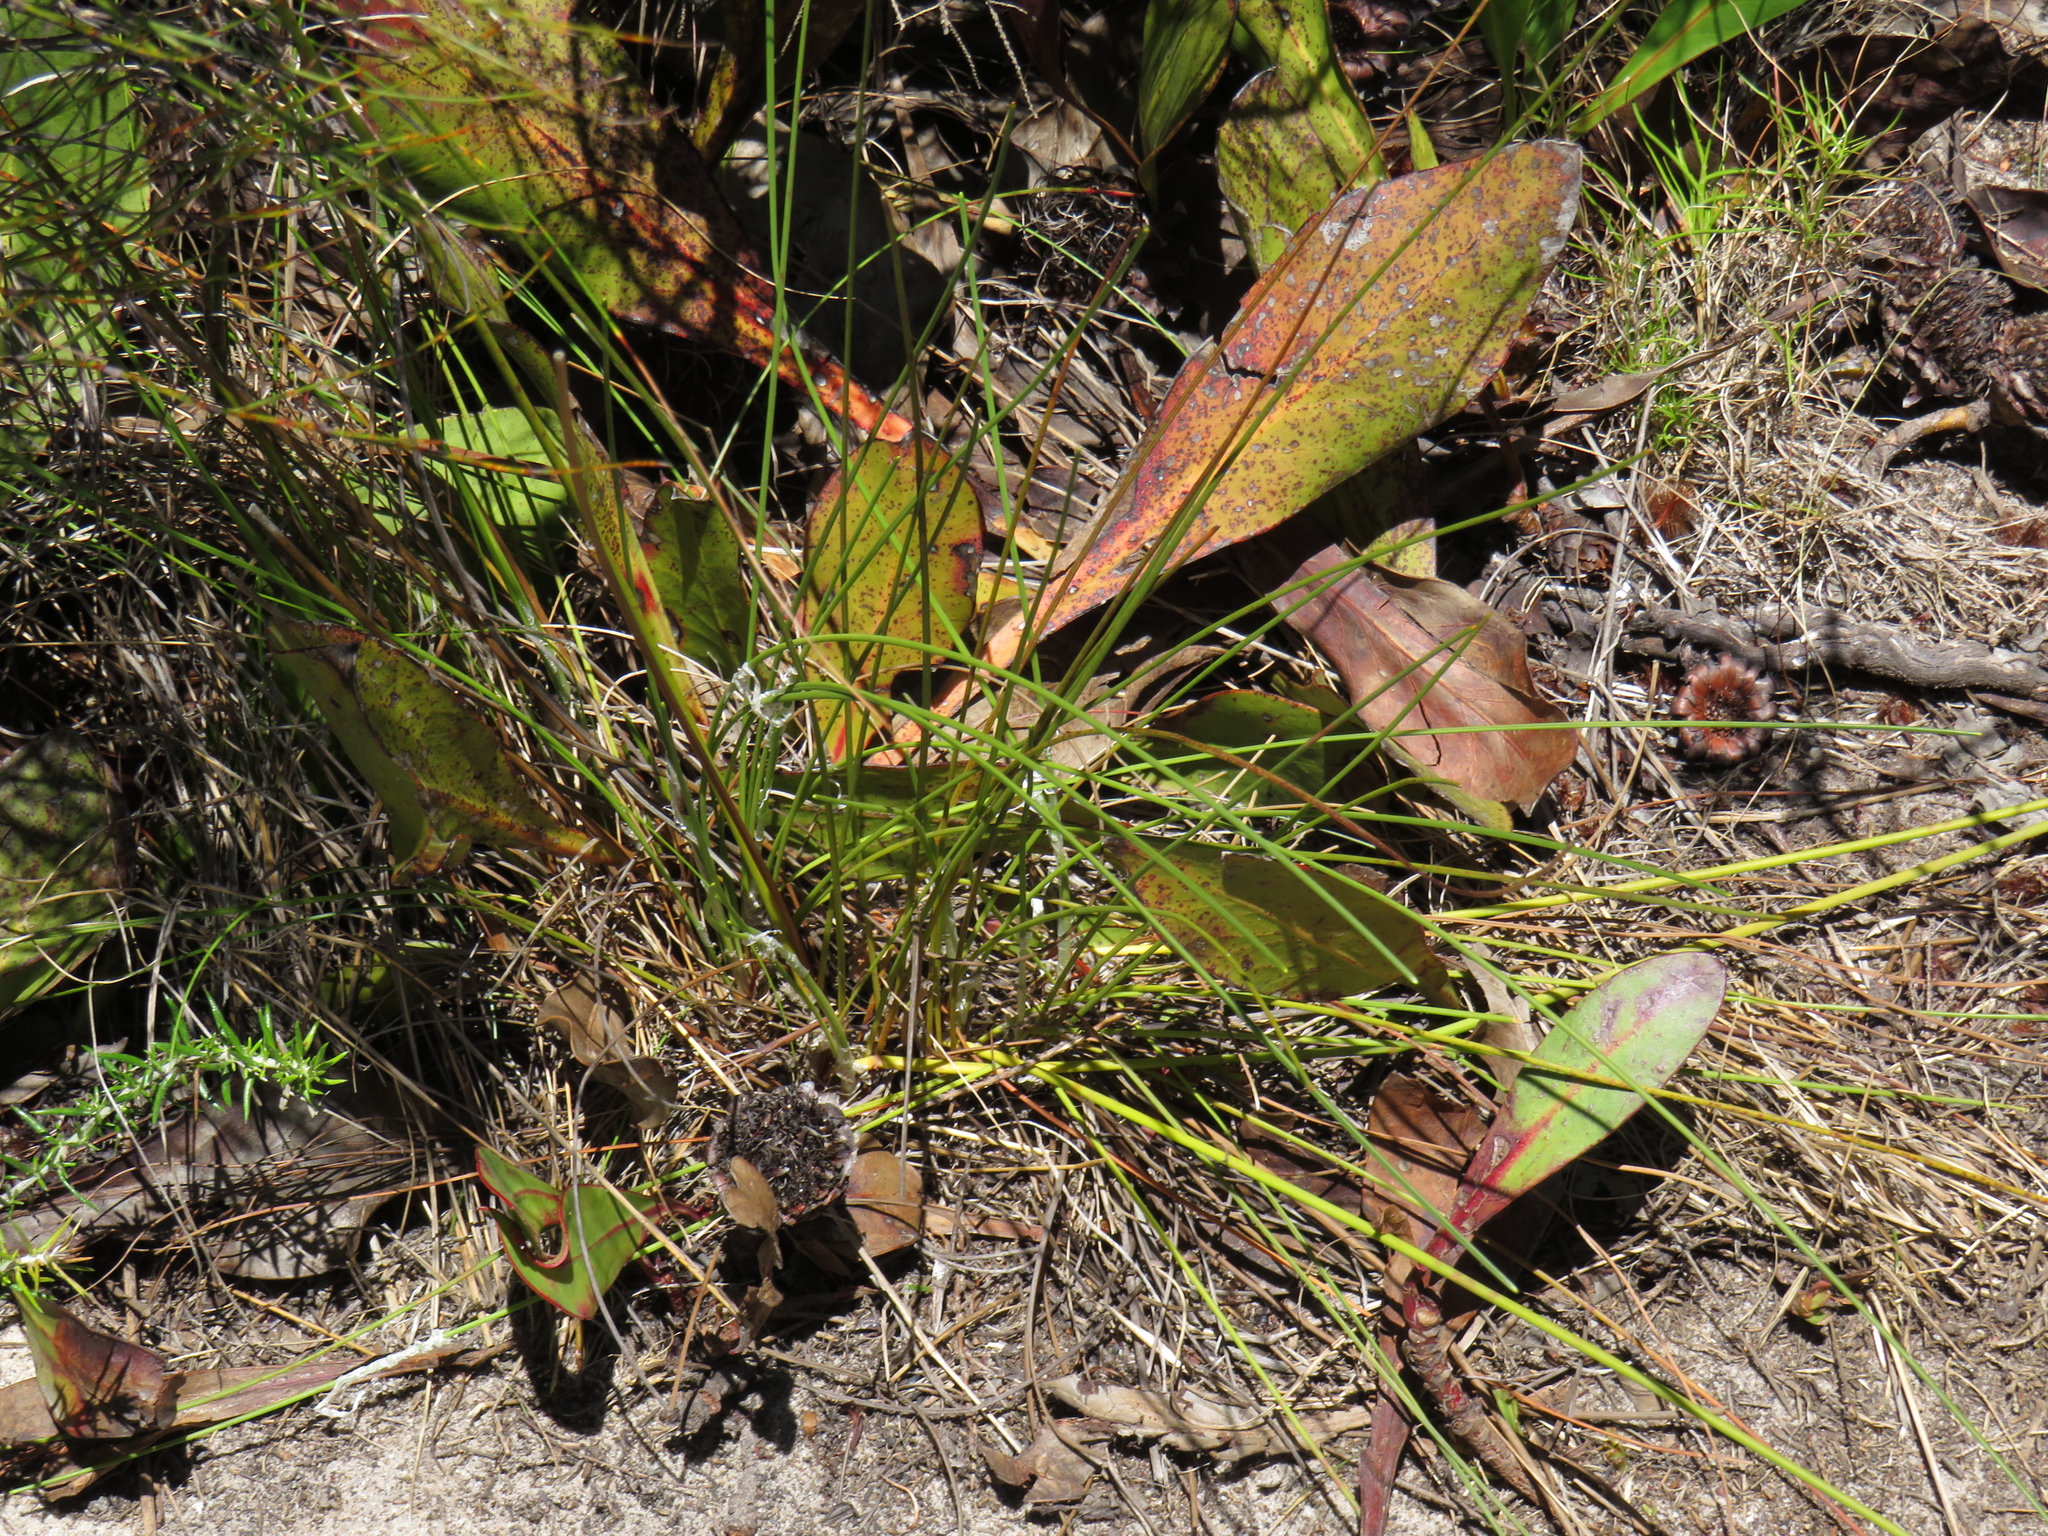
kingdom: Plantae
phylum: Tracheophyta
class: Magnoliopsida
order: Proteales
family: Proteaceae
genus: Protea
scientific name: Protea acaulos
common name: Common ground sugarbush
